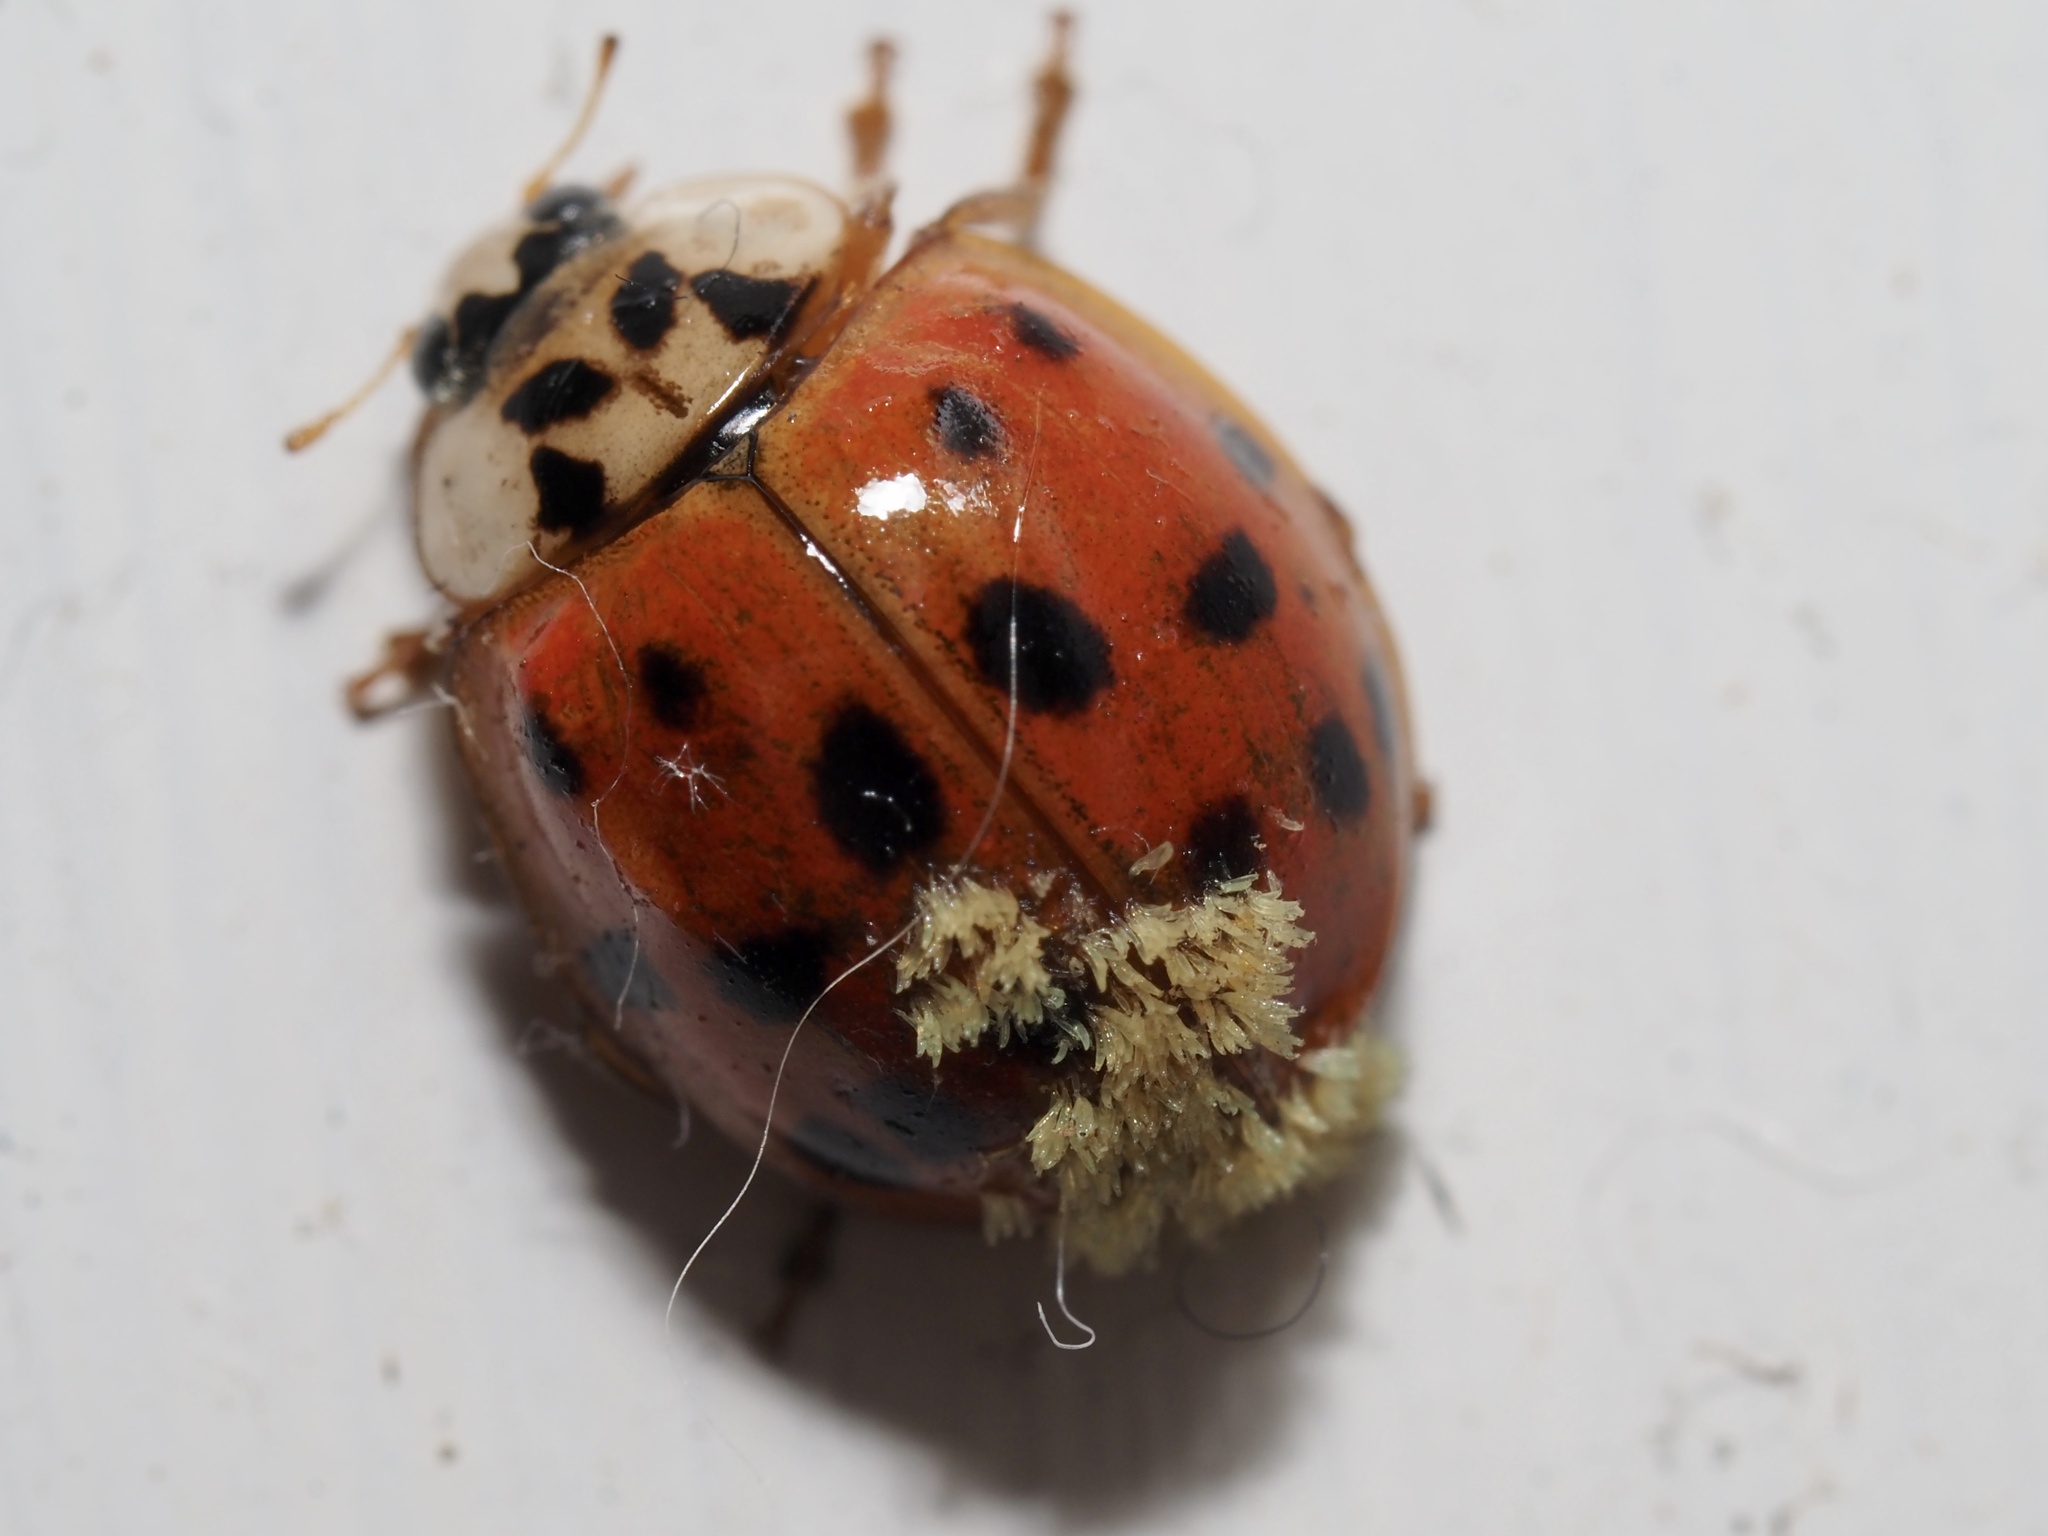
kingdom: Fungi
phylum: Ascomycota
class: Laboulbeniomycetes
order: Laboulbeniales
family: Laboulbeniaceae
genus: Hesperomyces
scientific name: Hesperomyces harmoniae
